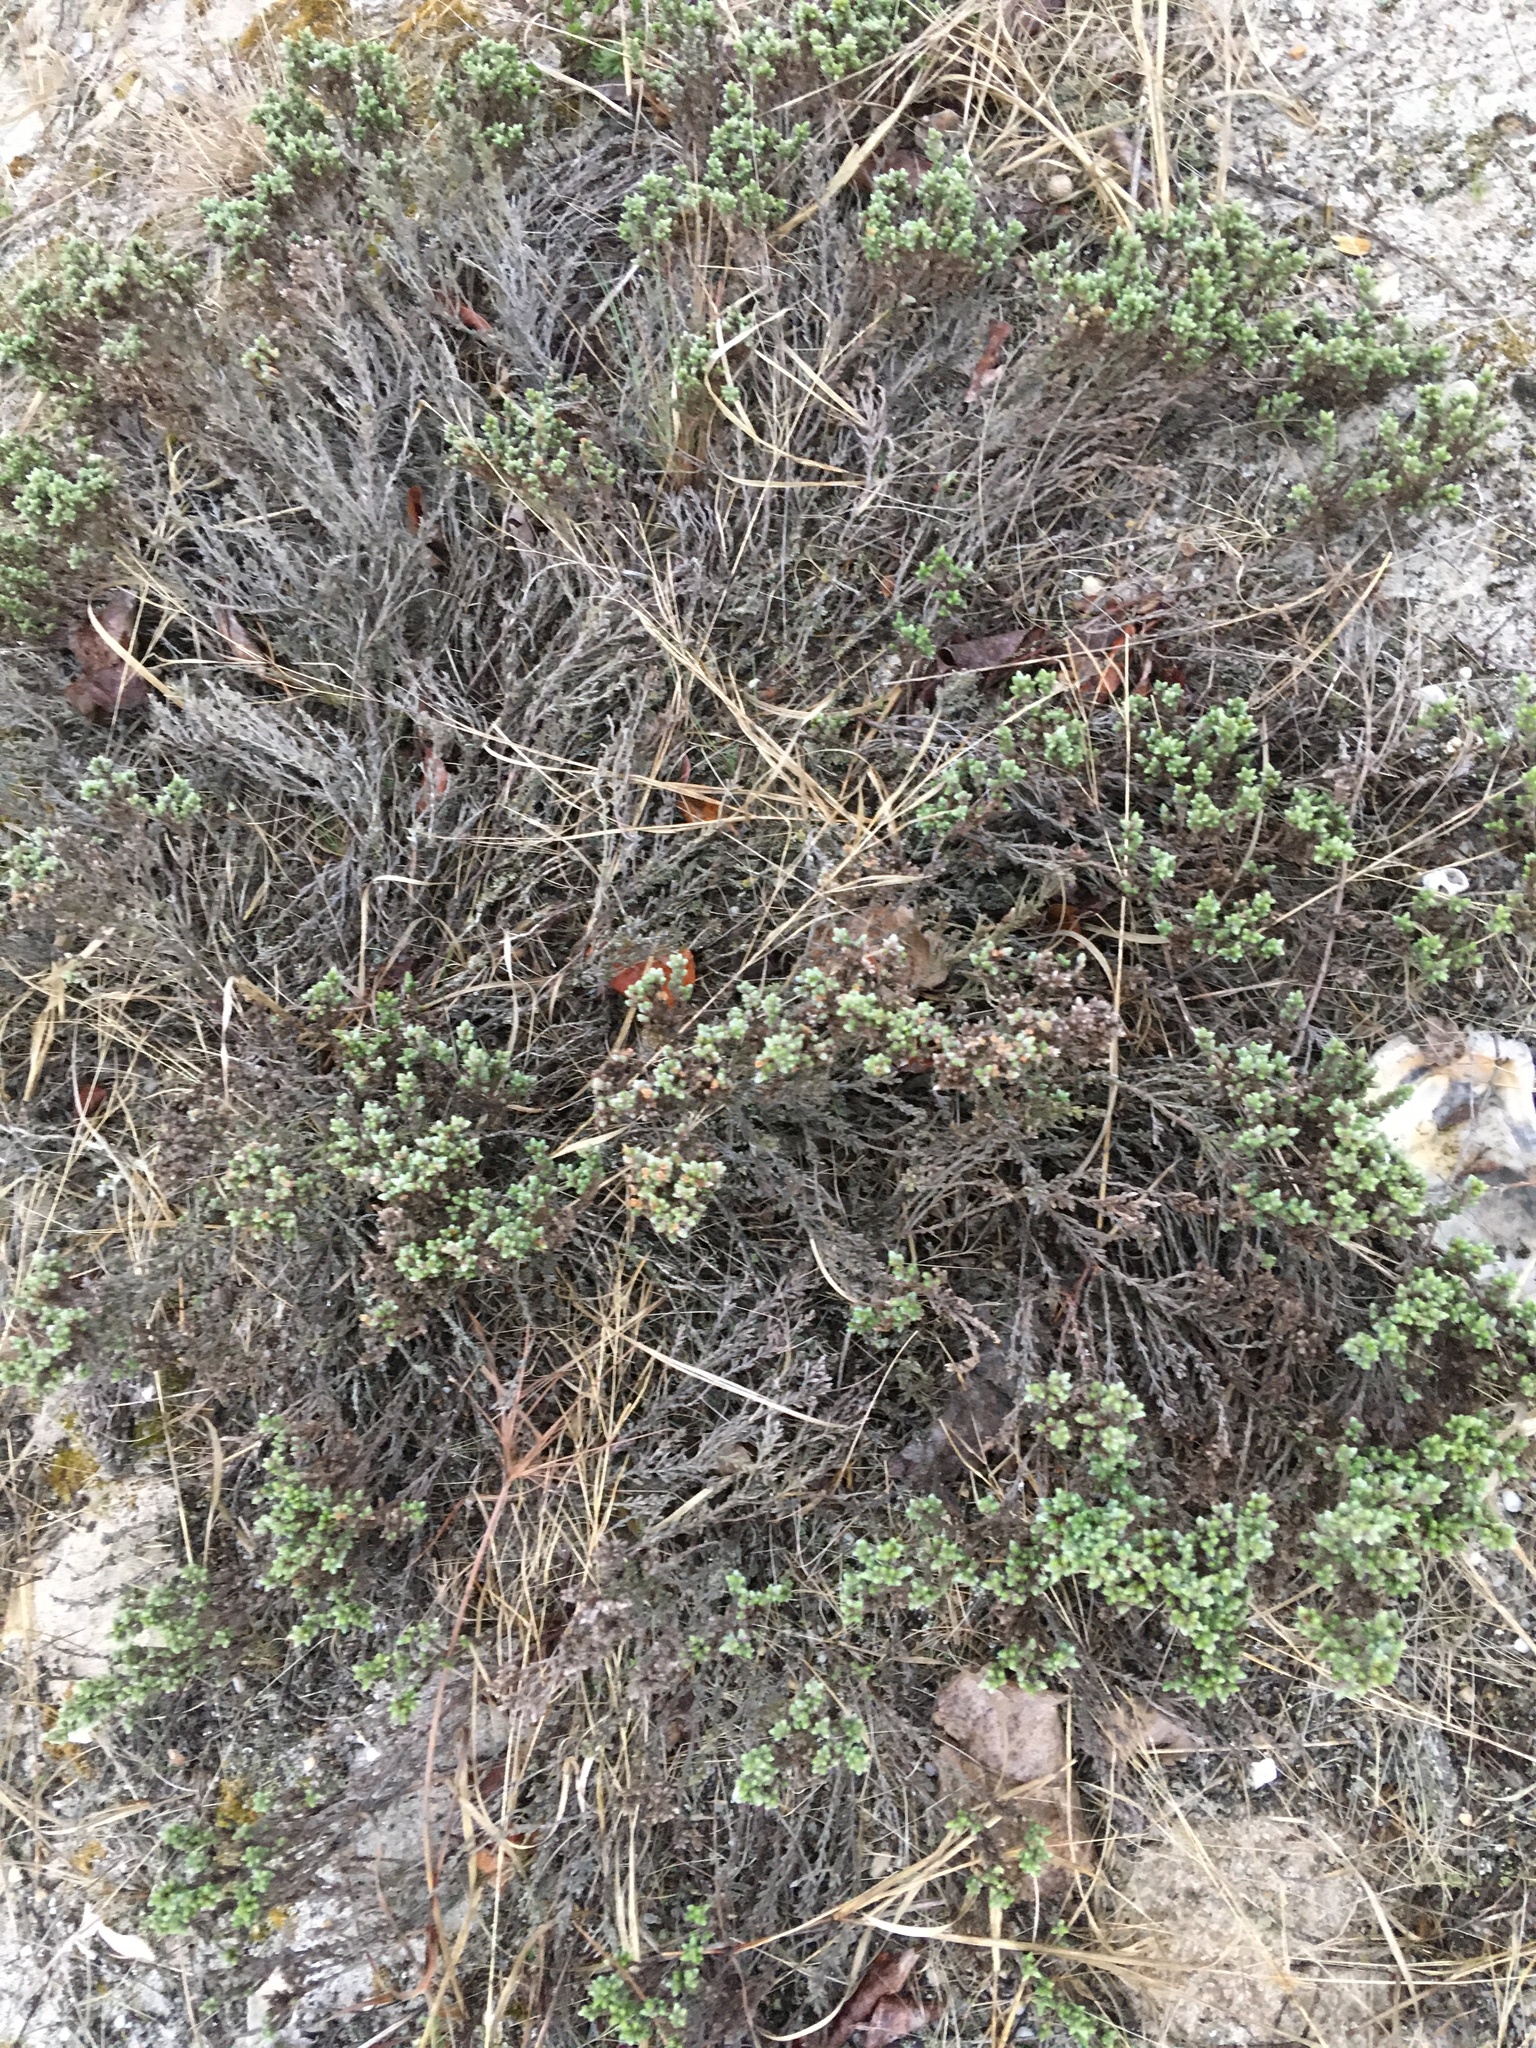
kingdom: Plantae
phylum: Tracheophyta
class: Magnoliopsida
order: Malvales
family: Cistaceae
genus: Hudsonia
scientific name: Hudsonia tomentosa
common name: Beach-heath
